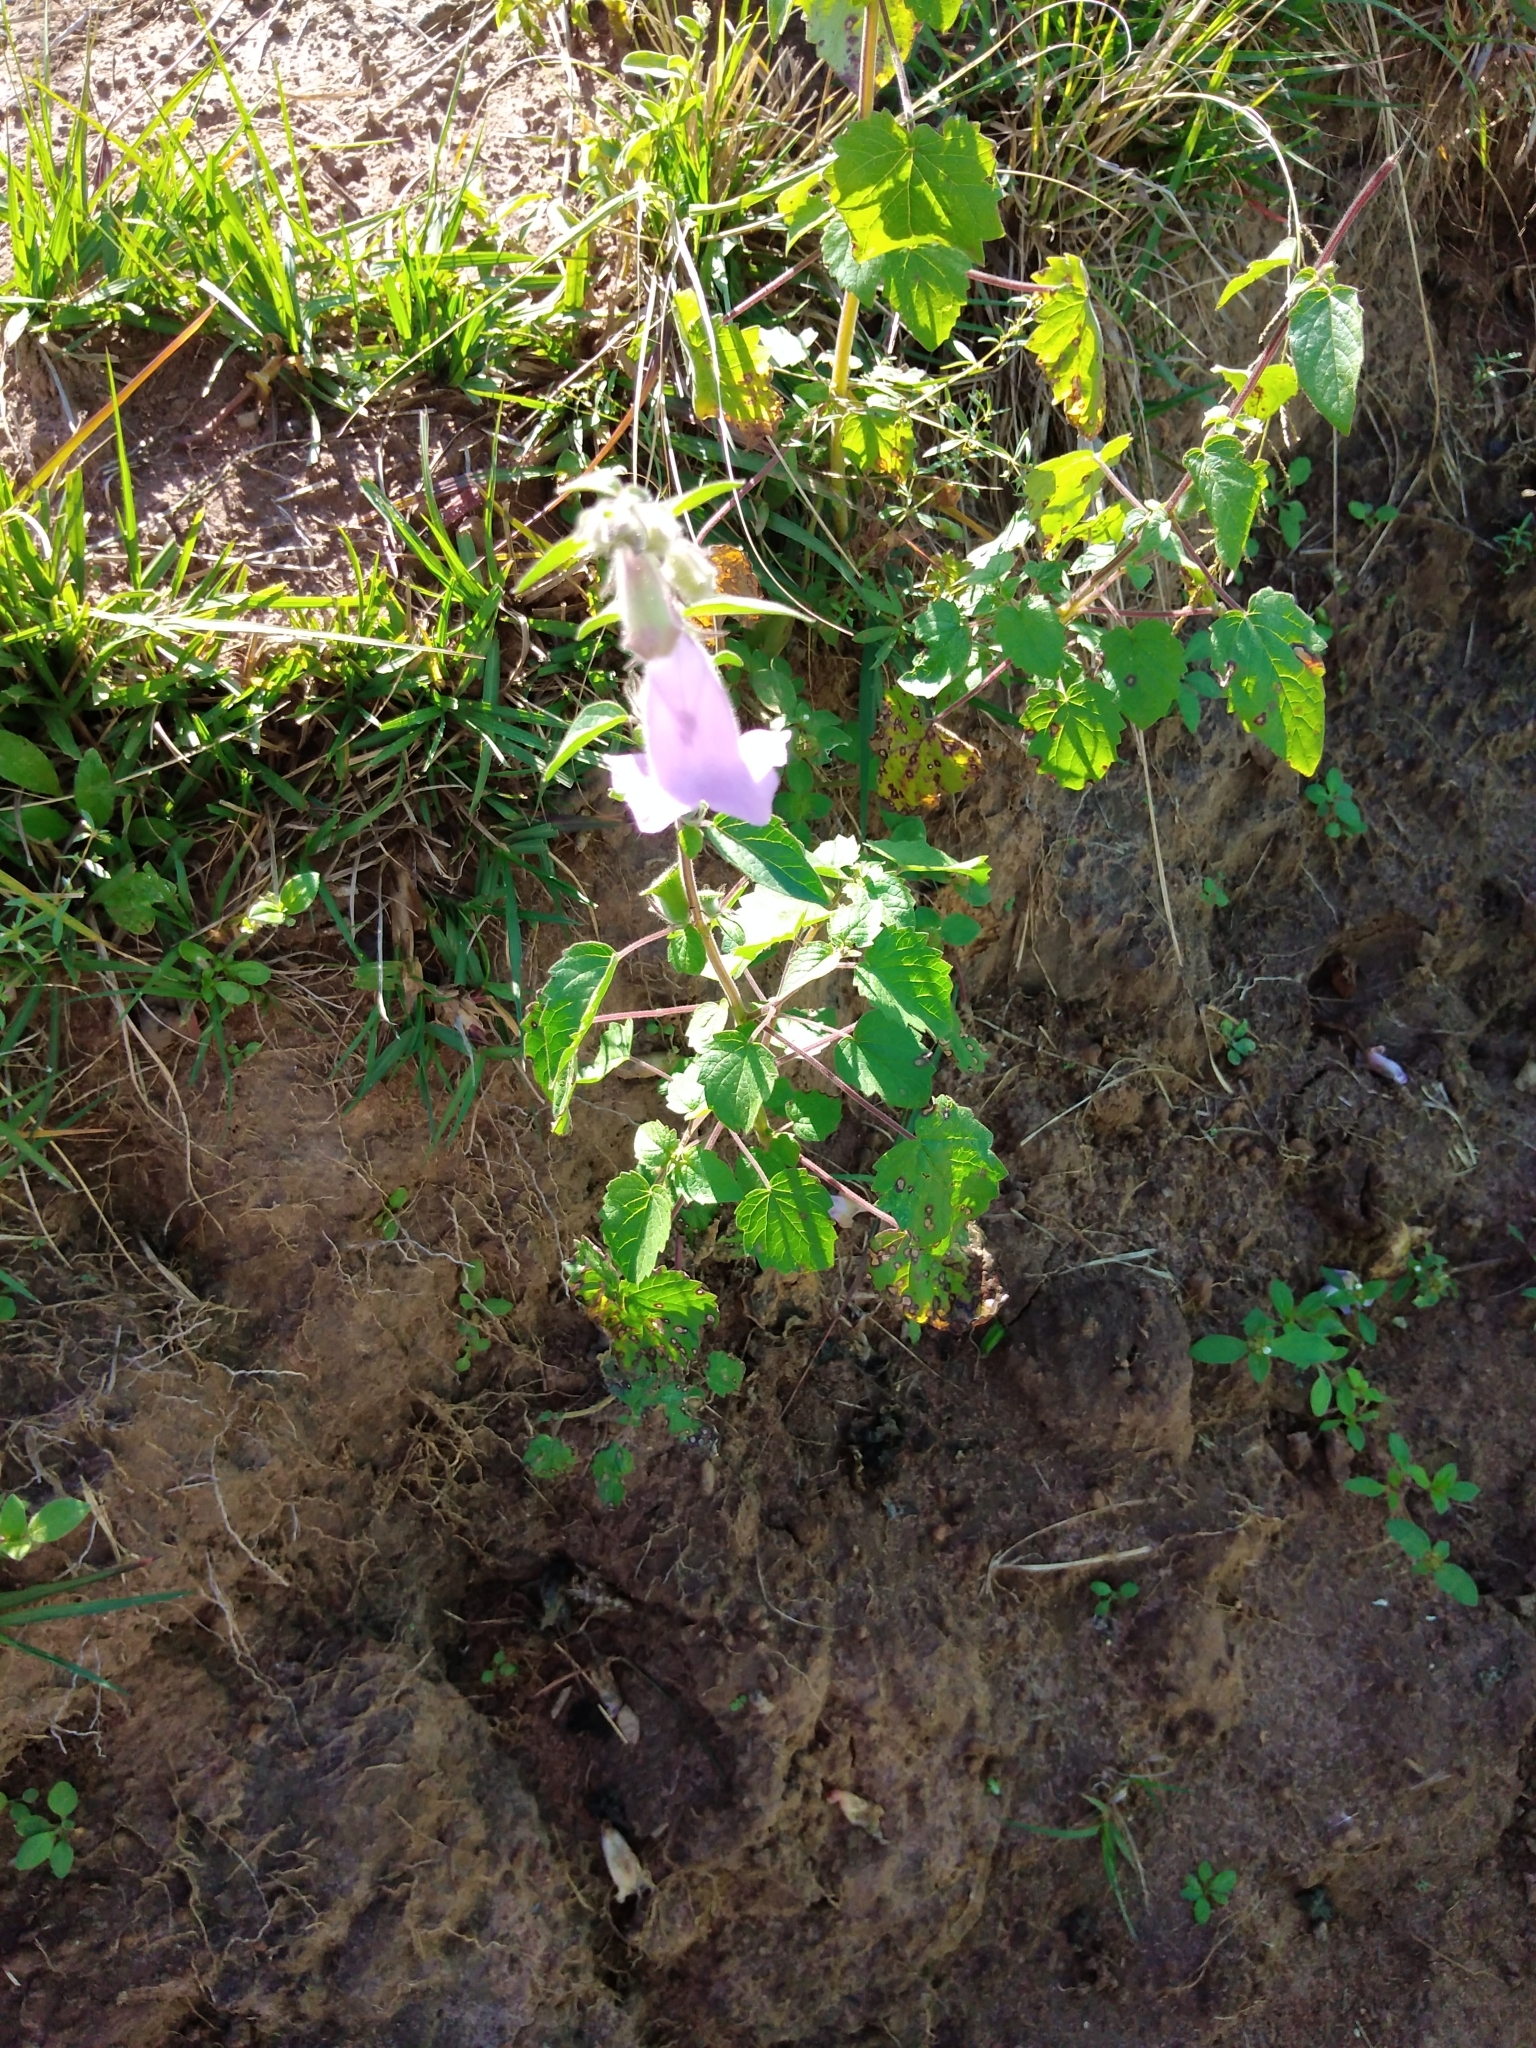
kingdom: Plantae
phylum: Tracheophyta
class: Magnoliopsida
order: Lamiales
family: Pedaliaceae
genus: Sesamum
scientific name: Sesamum trilobum
